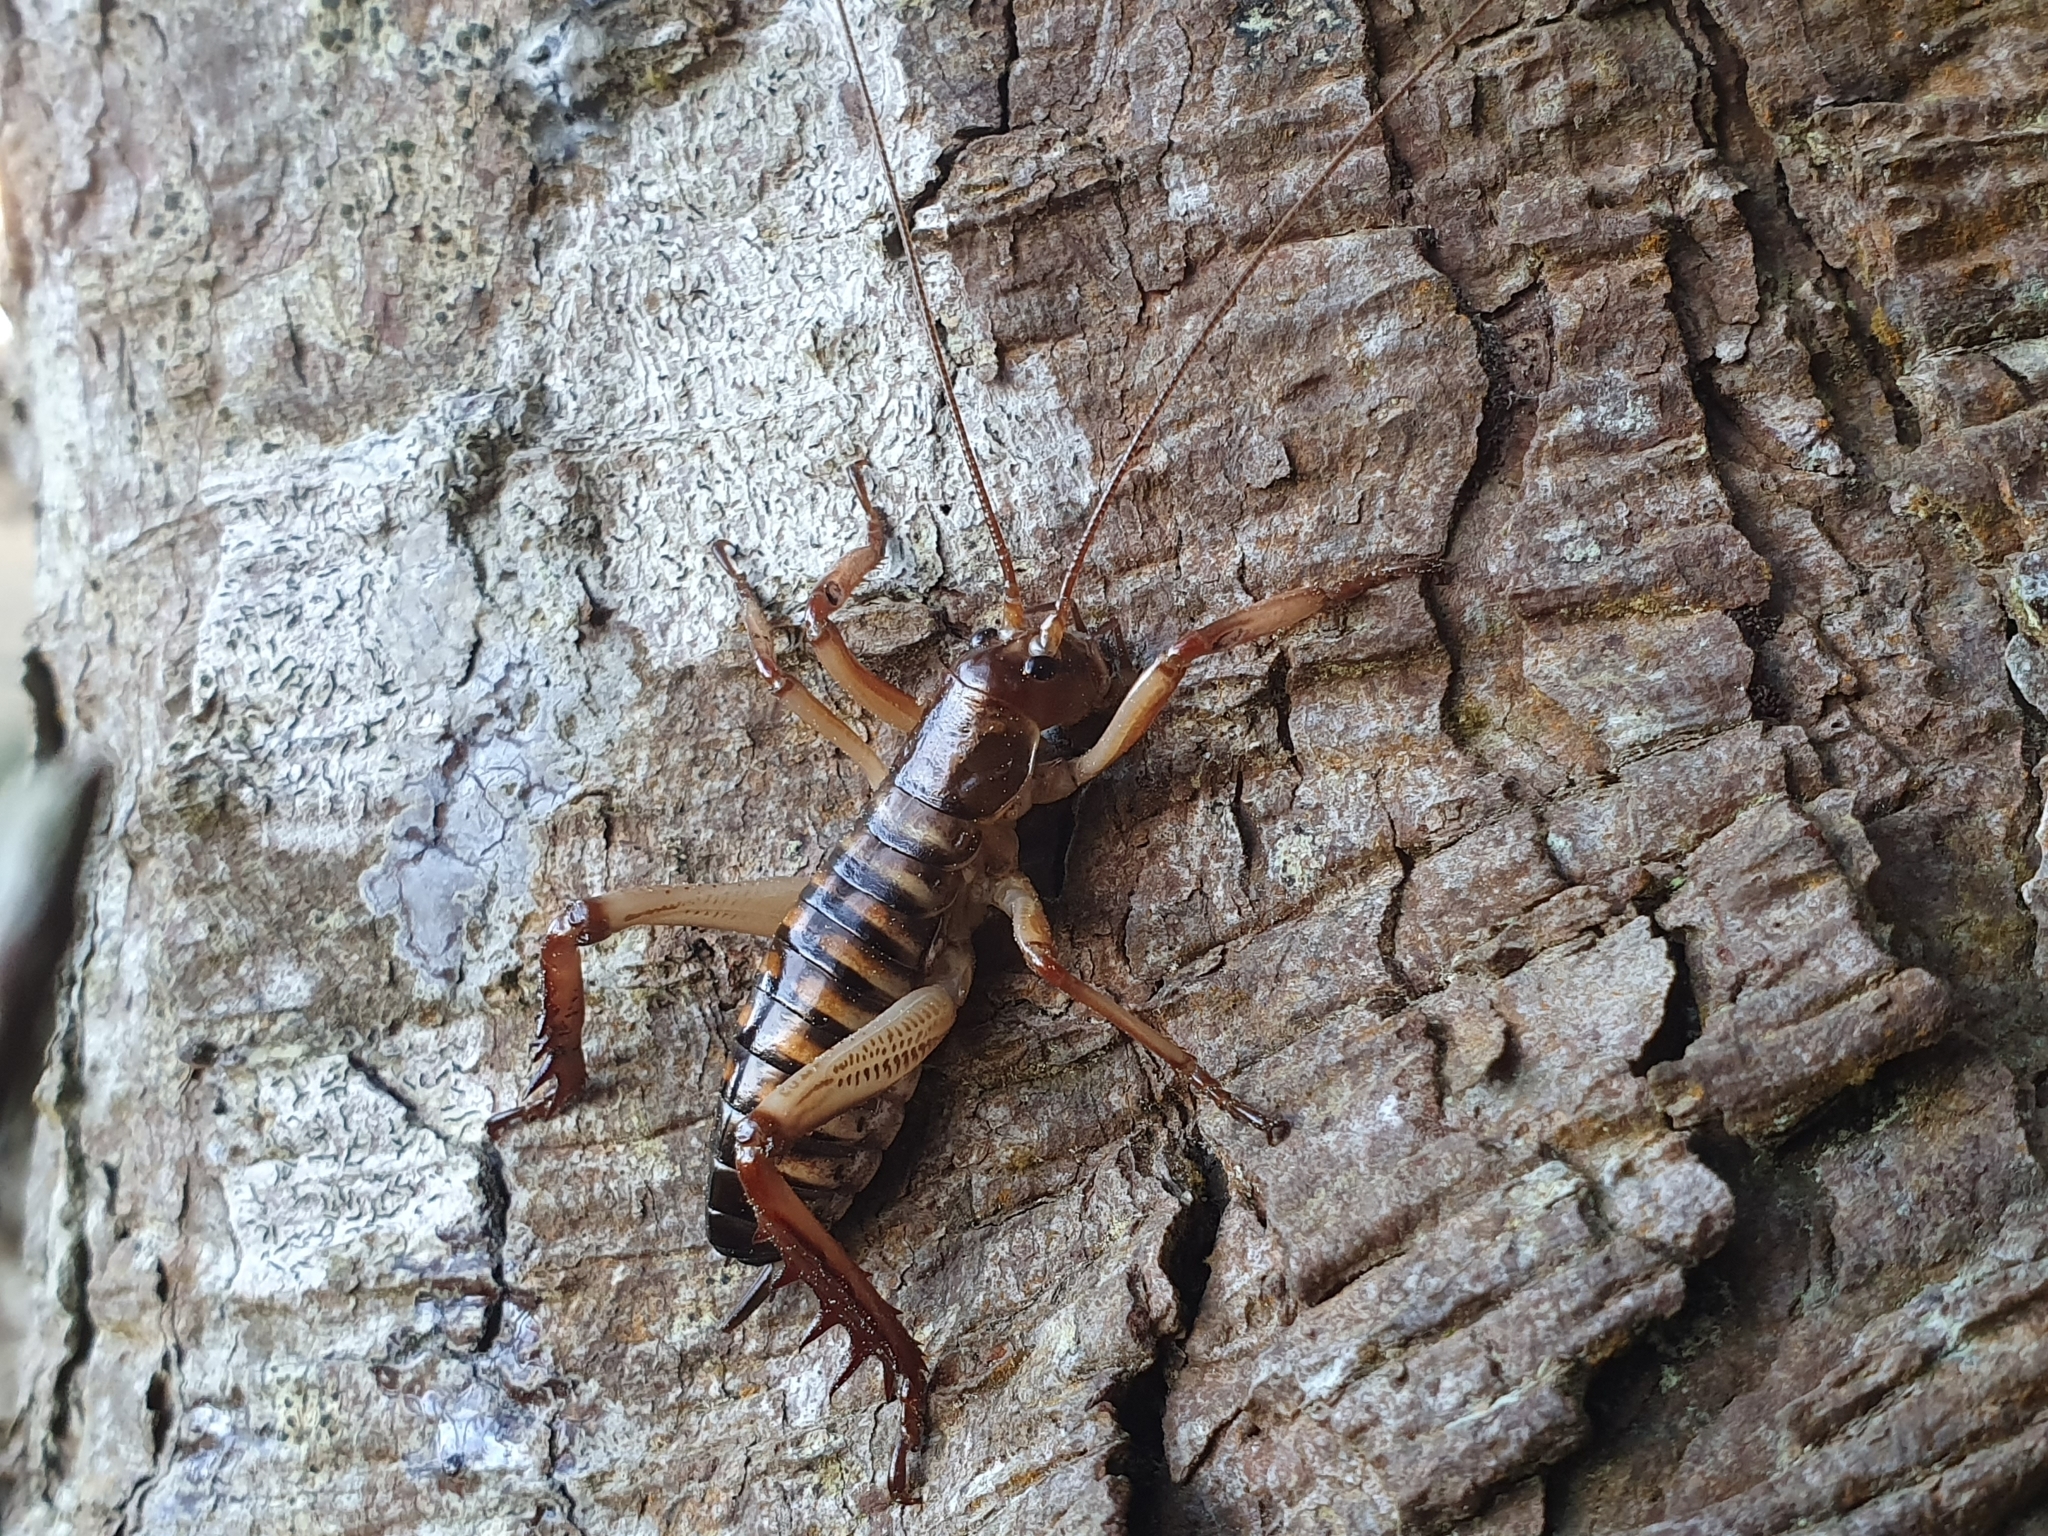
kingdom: Animalia
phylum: Arthropoda
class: Insecta
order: Orthoptera
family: Anostostomatidae
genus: Hemideina
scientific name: Hemideina crassidens
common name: Wellington tree weta
